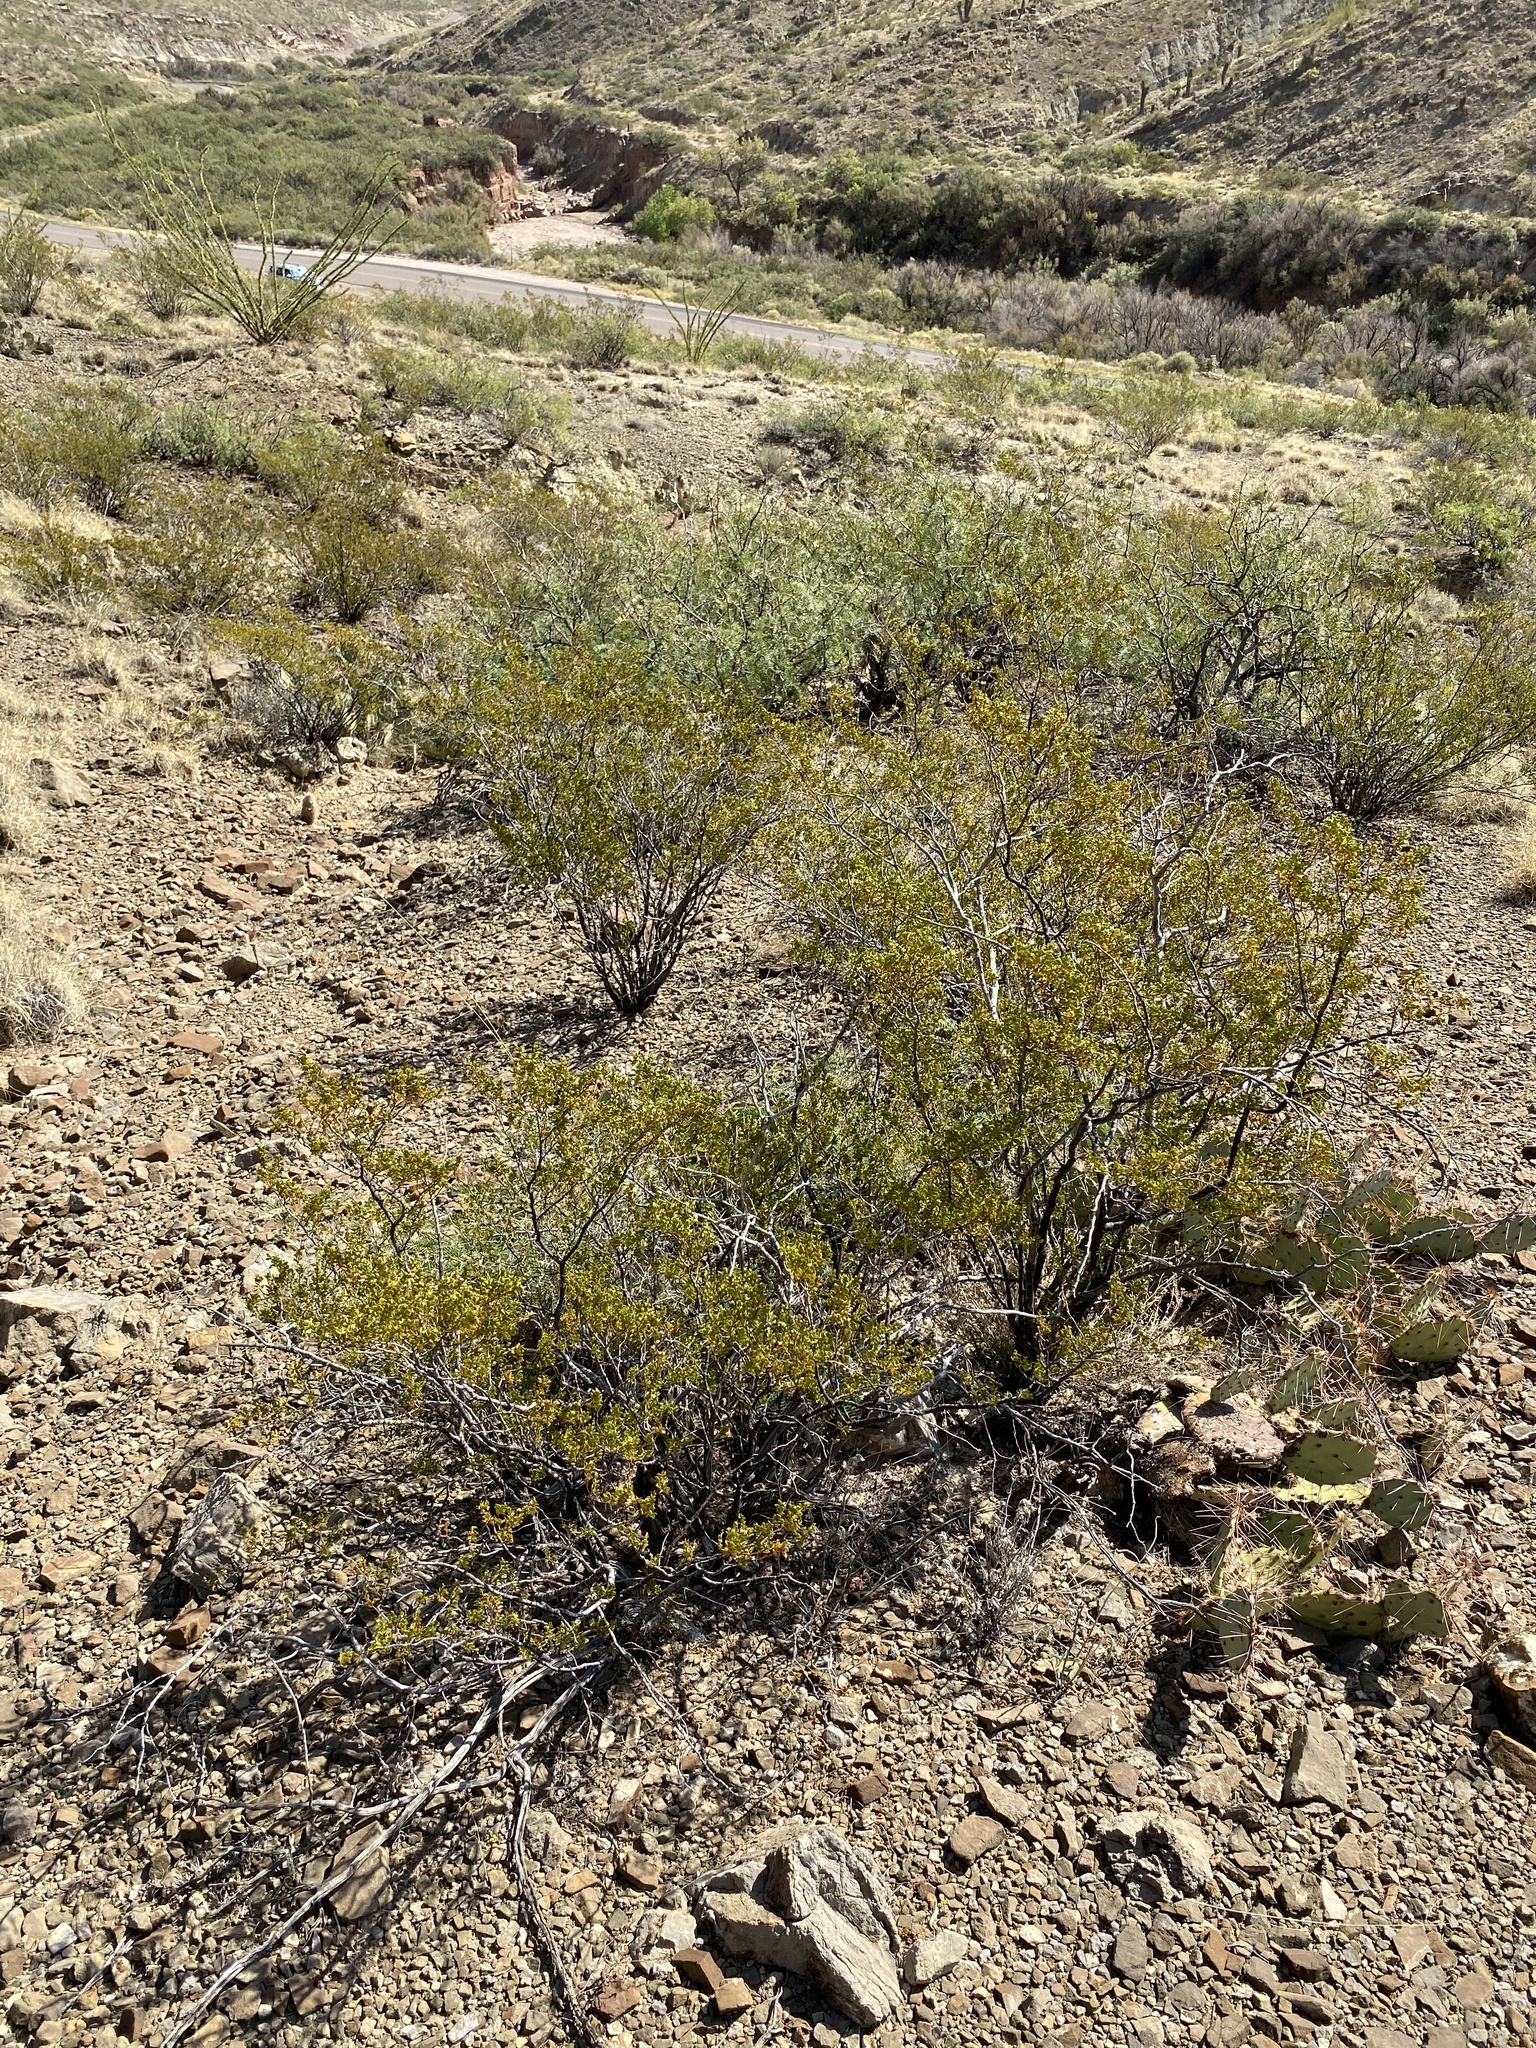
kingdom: Plantae
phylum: Tracheophyta
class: Magnoliopsida
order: Zygophyllales
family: Zygophyllaceae
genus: Larrea
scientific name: Larrea tridentata
